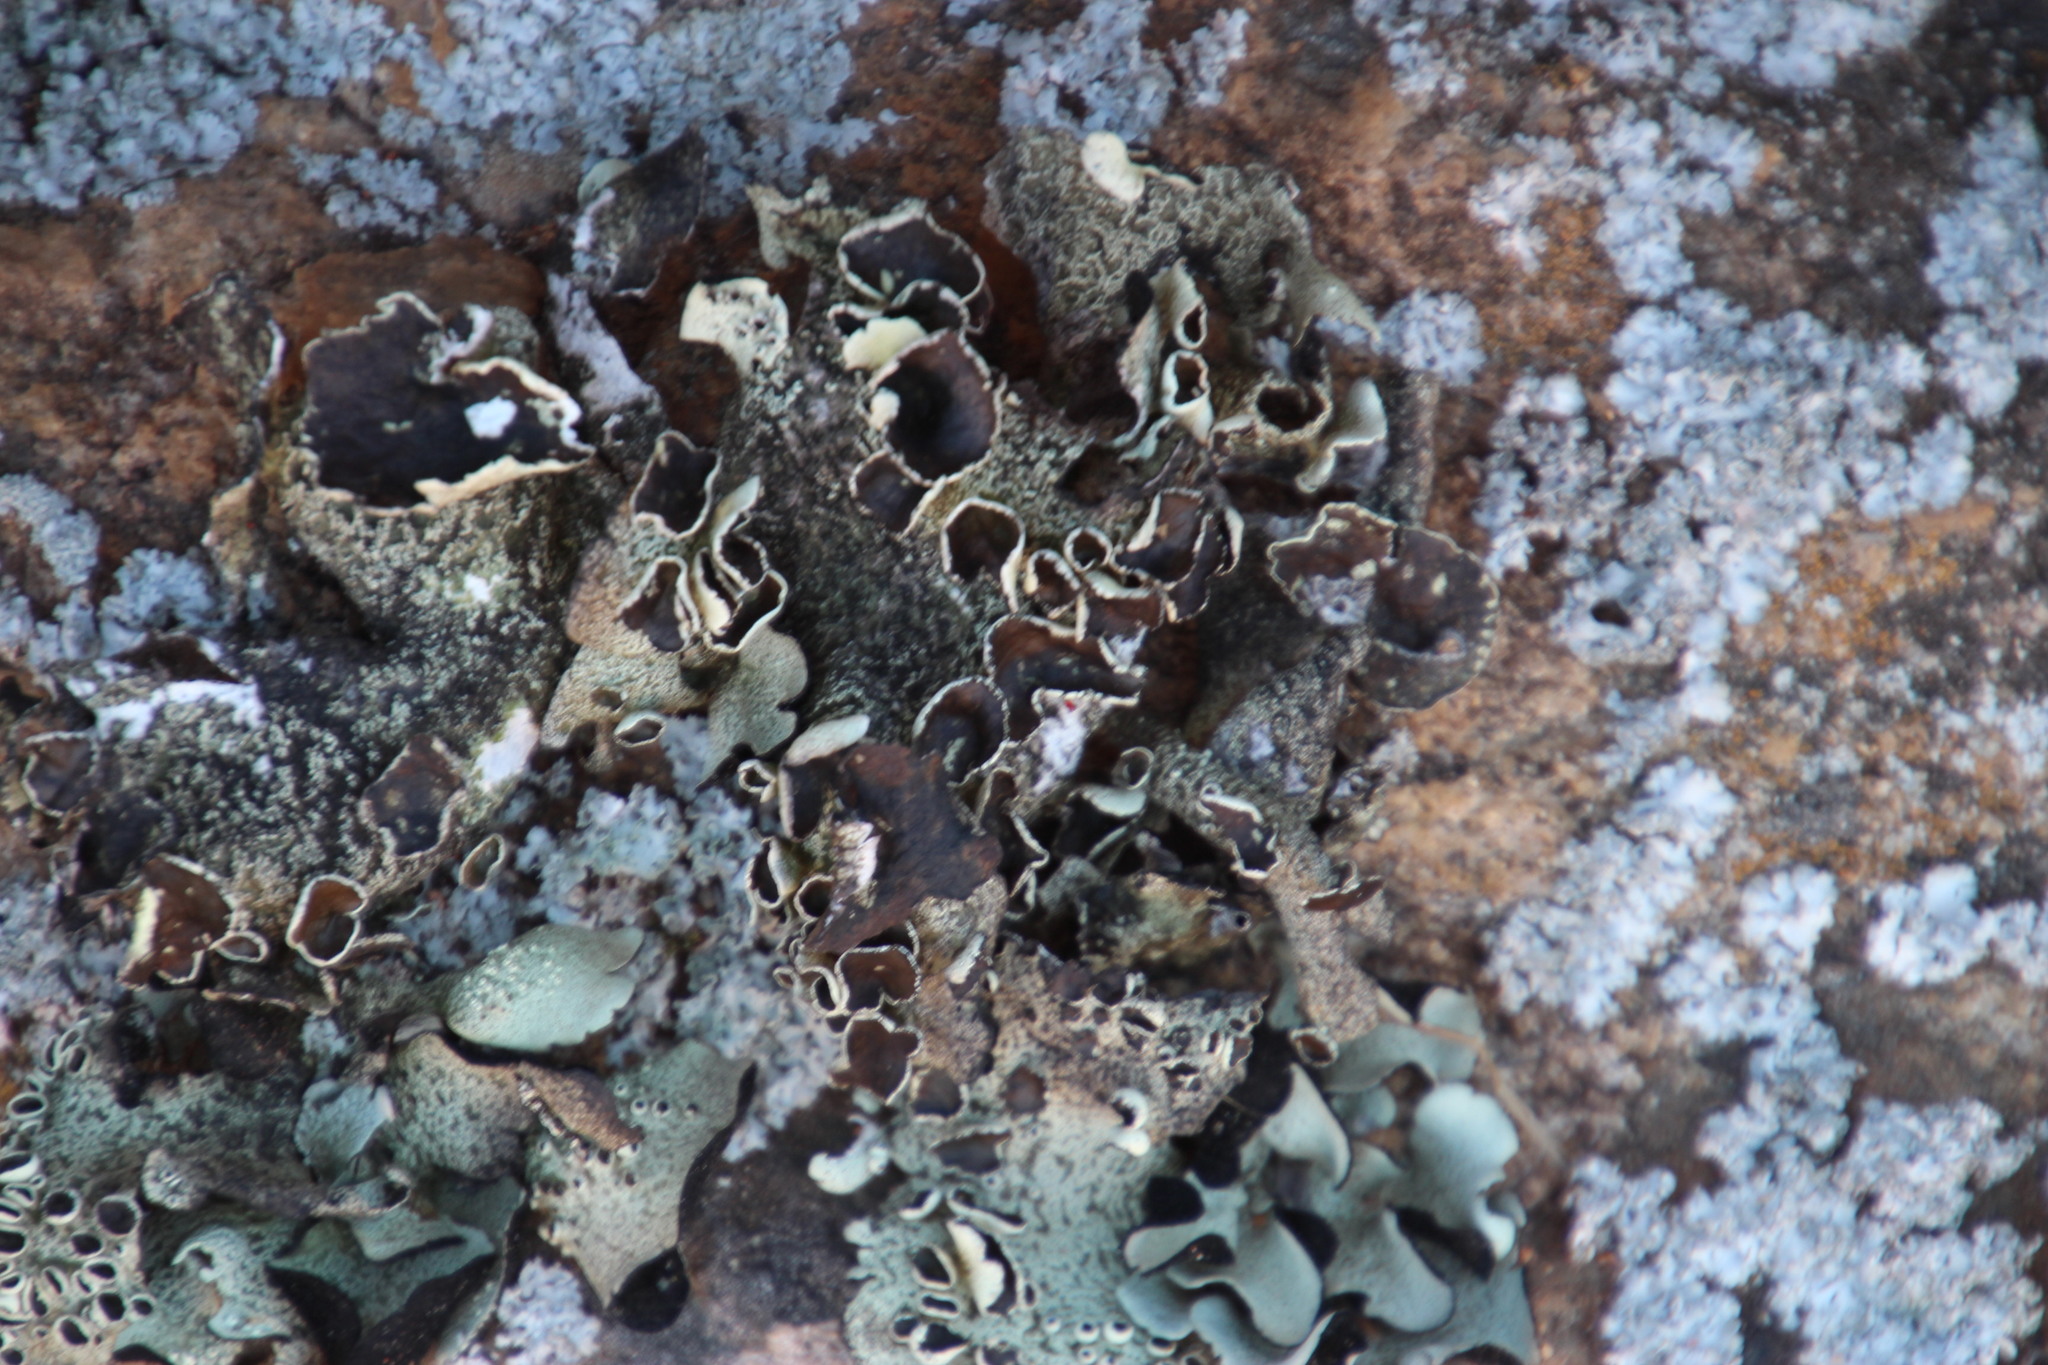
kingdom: Fungi
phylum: Ascomycota
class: Lecanoromycetes
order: Lecanorales
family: Parmeliaceae
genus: Xanthoparmelia
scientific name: Xanthoparmelia frondosa
